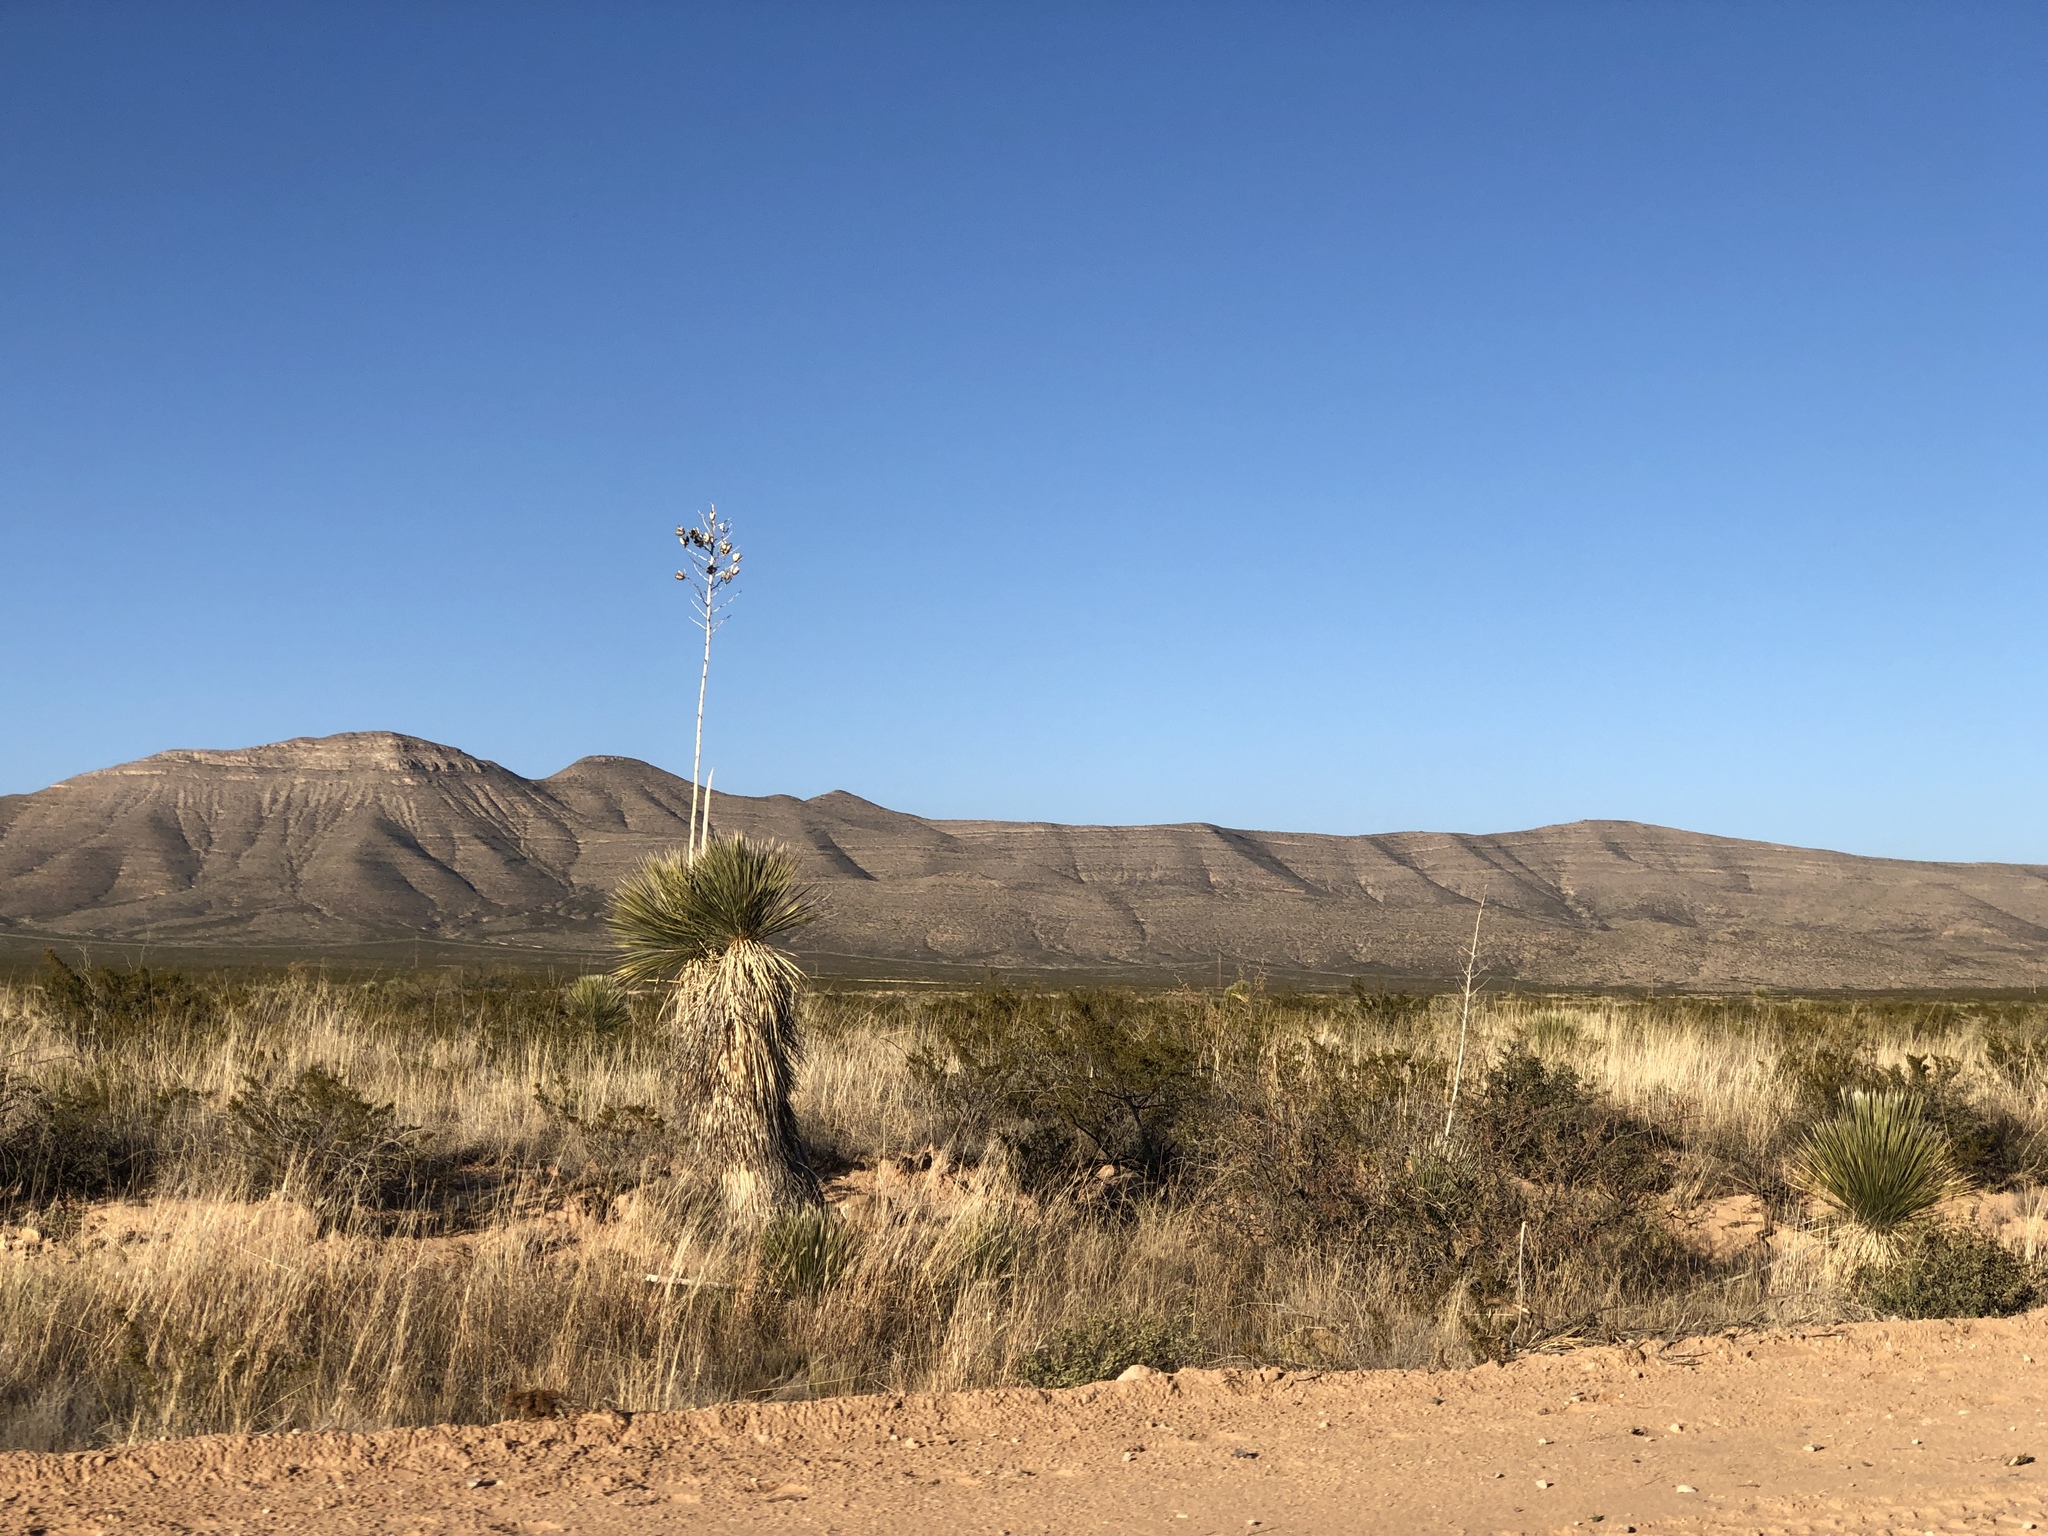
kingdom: Plantae
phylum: Tracheophyta
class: Liliopsida
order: Asparagales
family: Asparagaceae
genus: Yucca
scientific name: Yucca elata
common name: Palmella
